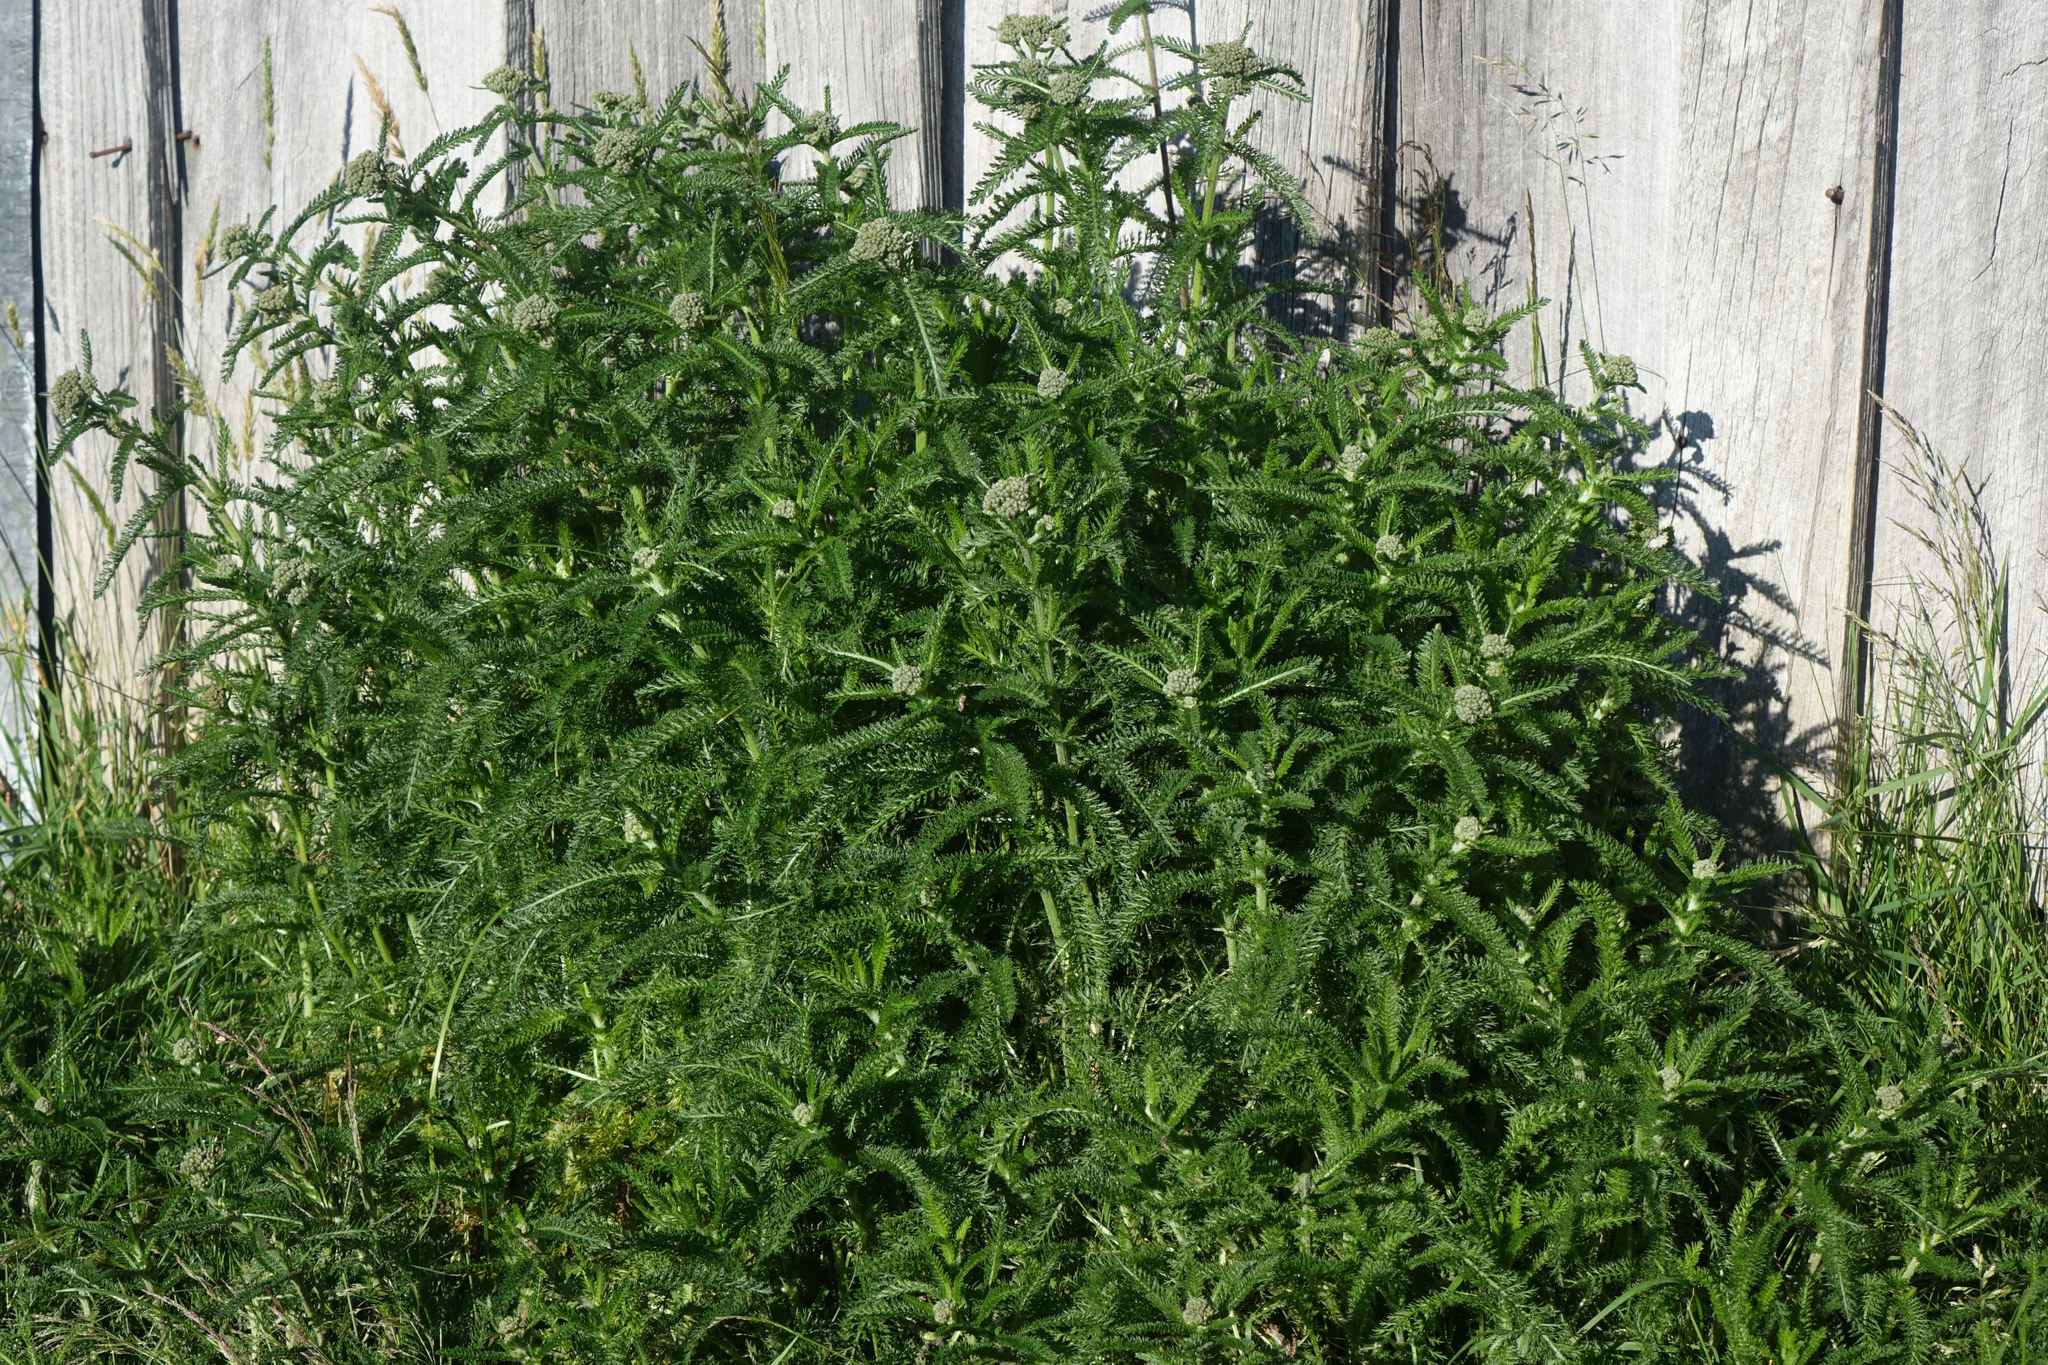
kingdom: Plantae
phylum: Tracheophyta
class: Magnoliopsida
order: Asterales
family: Asteraceae
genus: Achillea
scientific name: Achillea millefolium
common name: Yarrow
